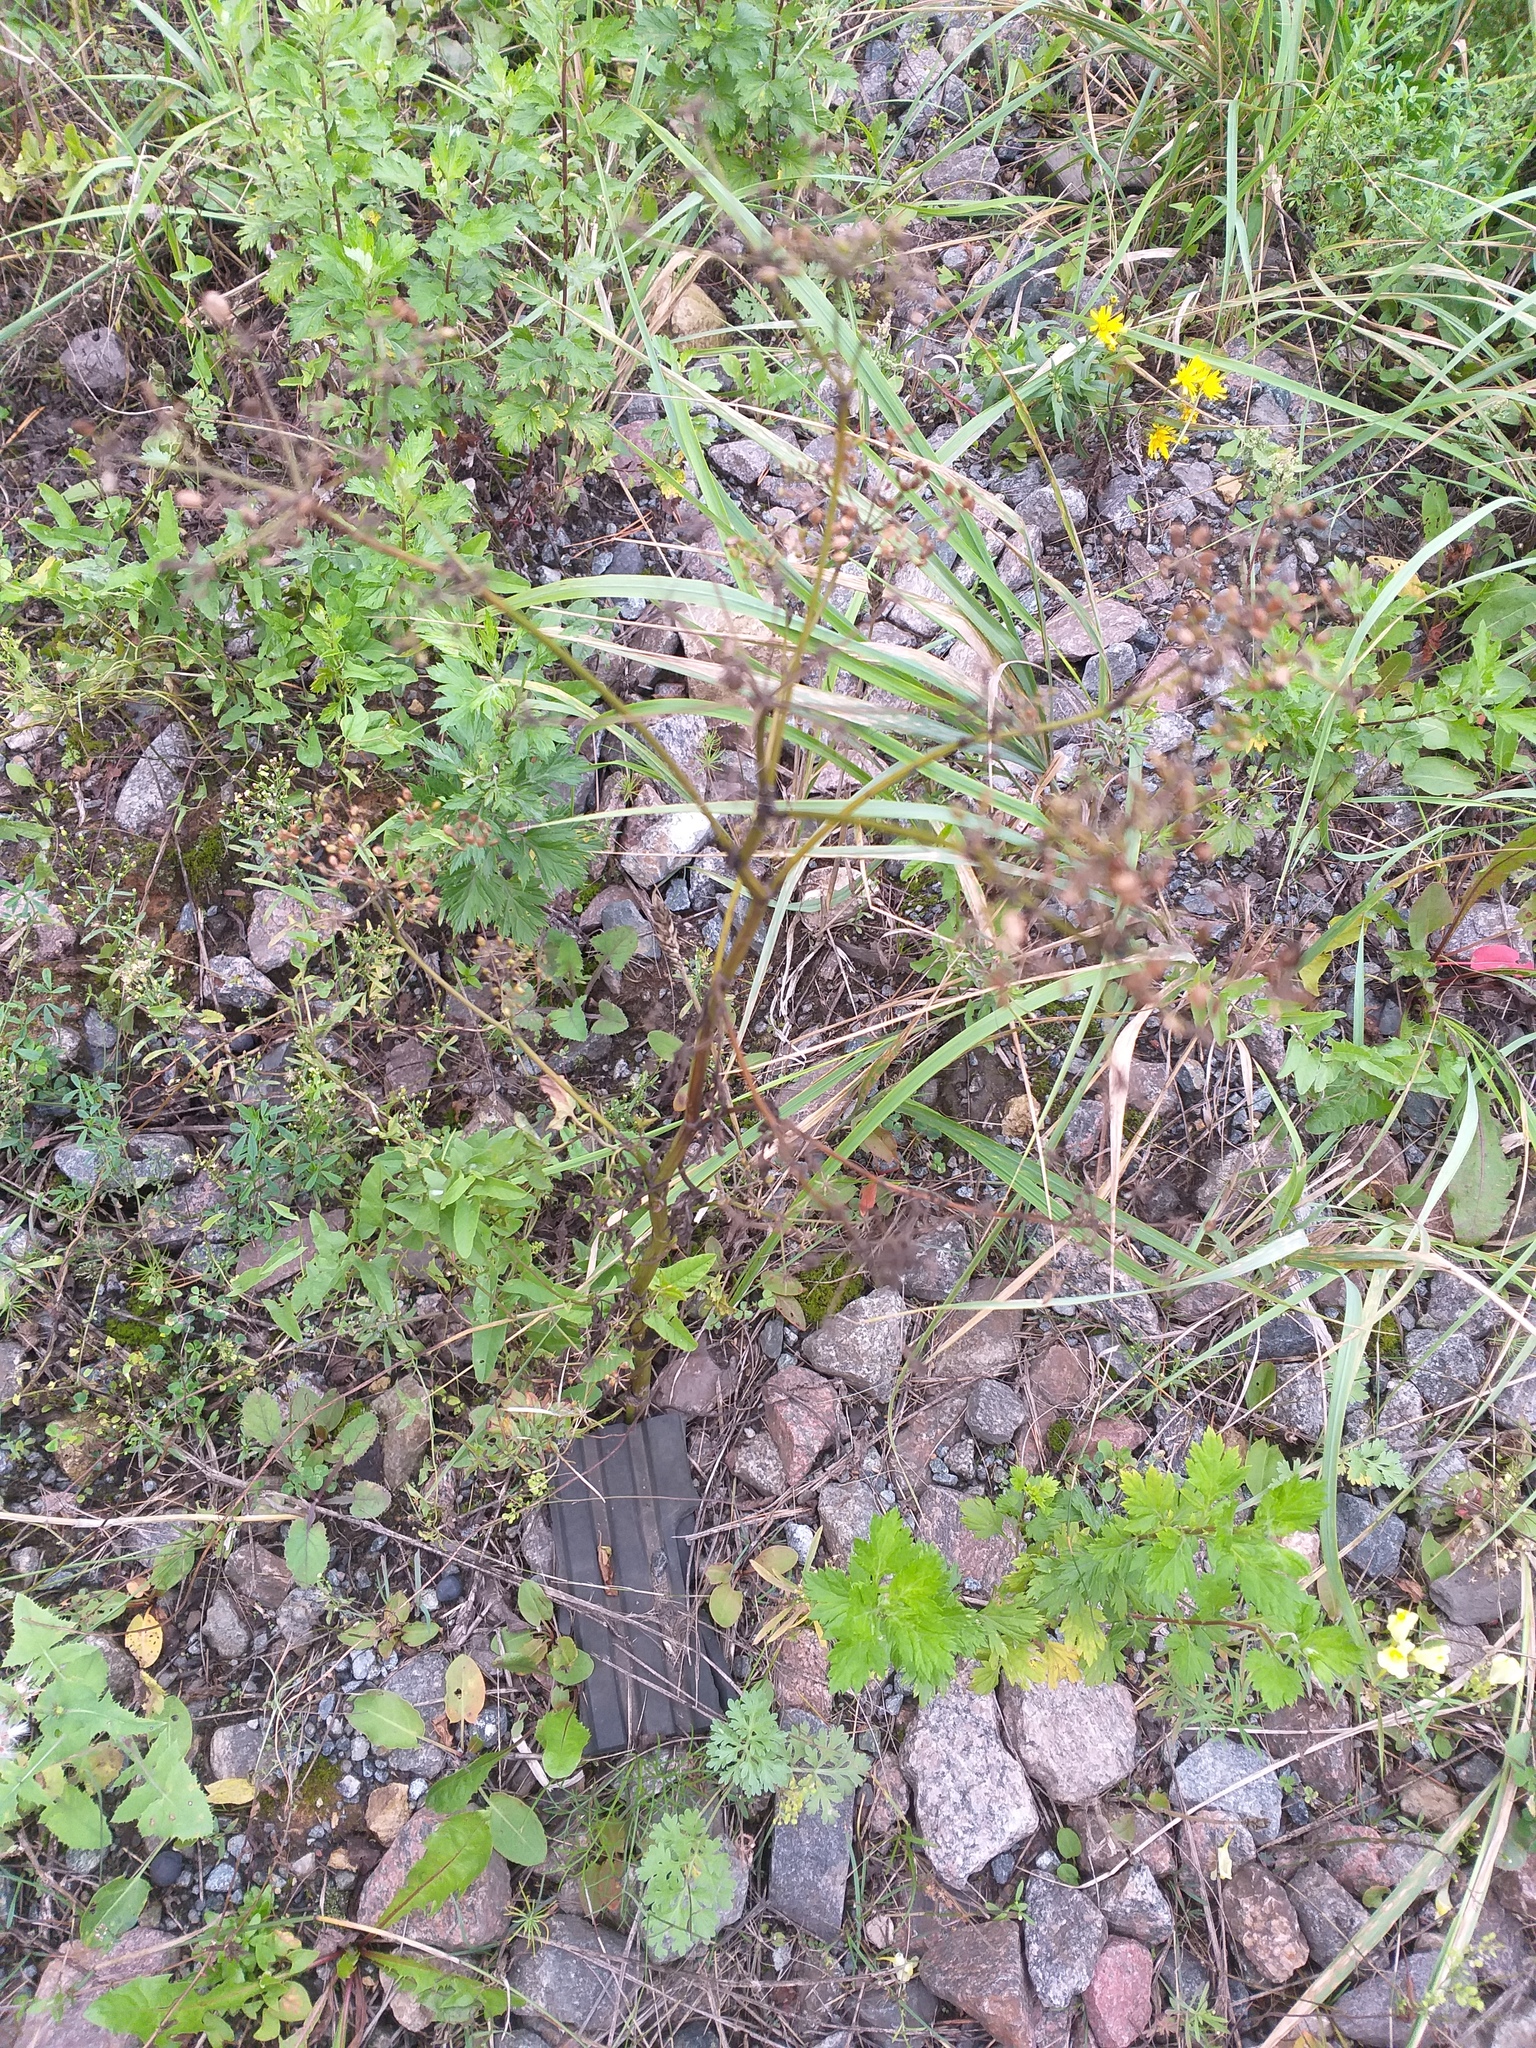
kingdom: Plantae
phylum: Tracheophyta
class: Magnoliopsida
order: Apiales
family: Apiaceae
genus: Pastinaca
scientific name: Pastinaca sativa
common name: Wild parsnip
